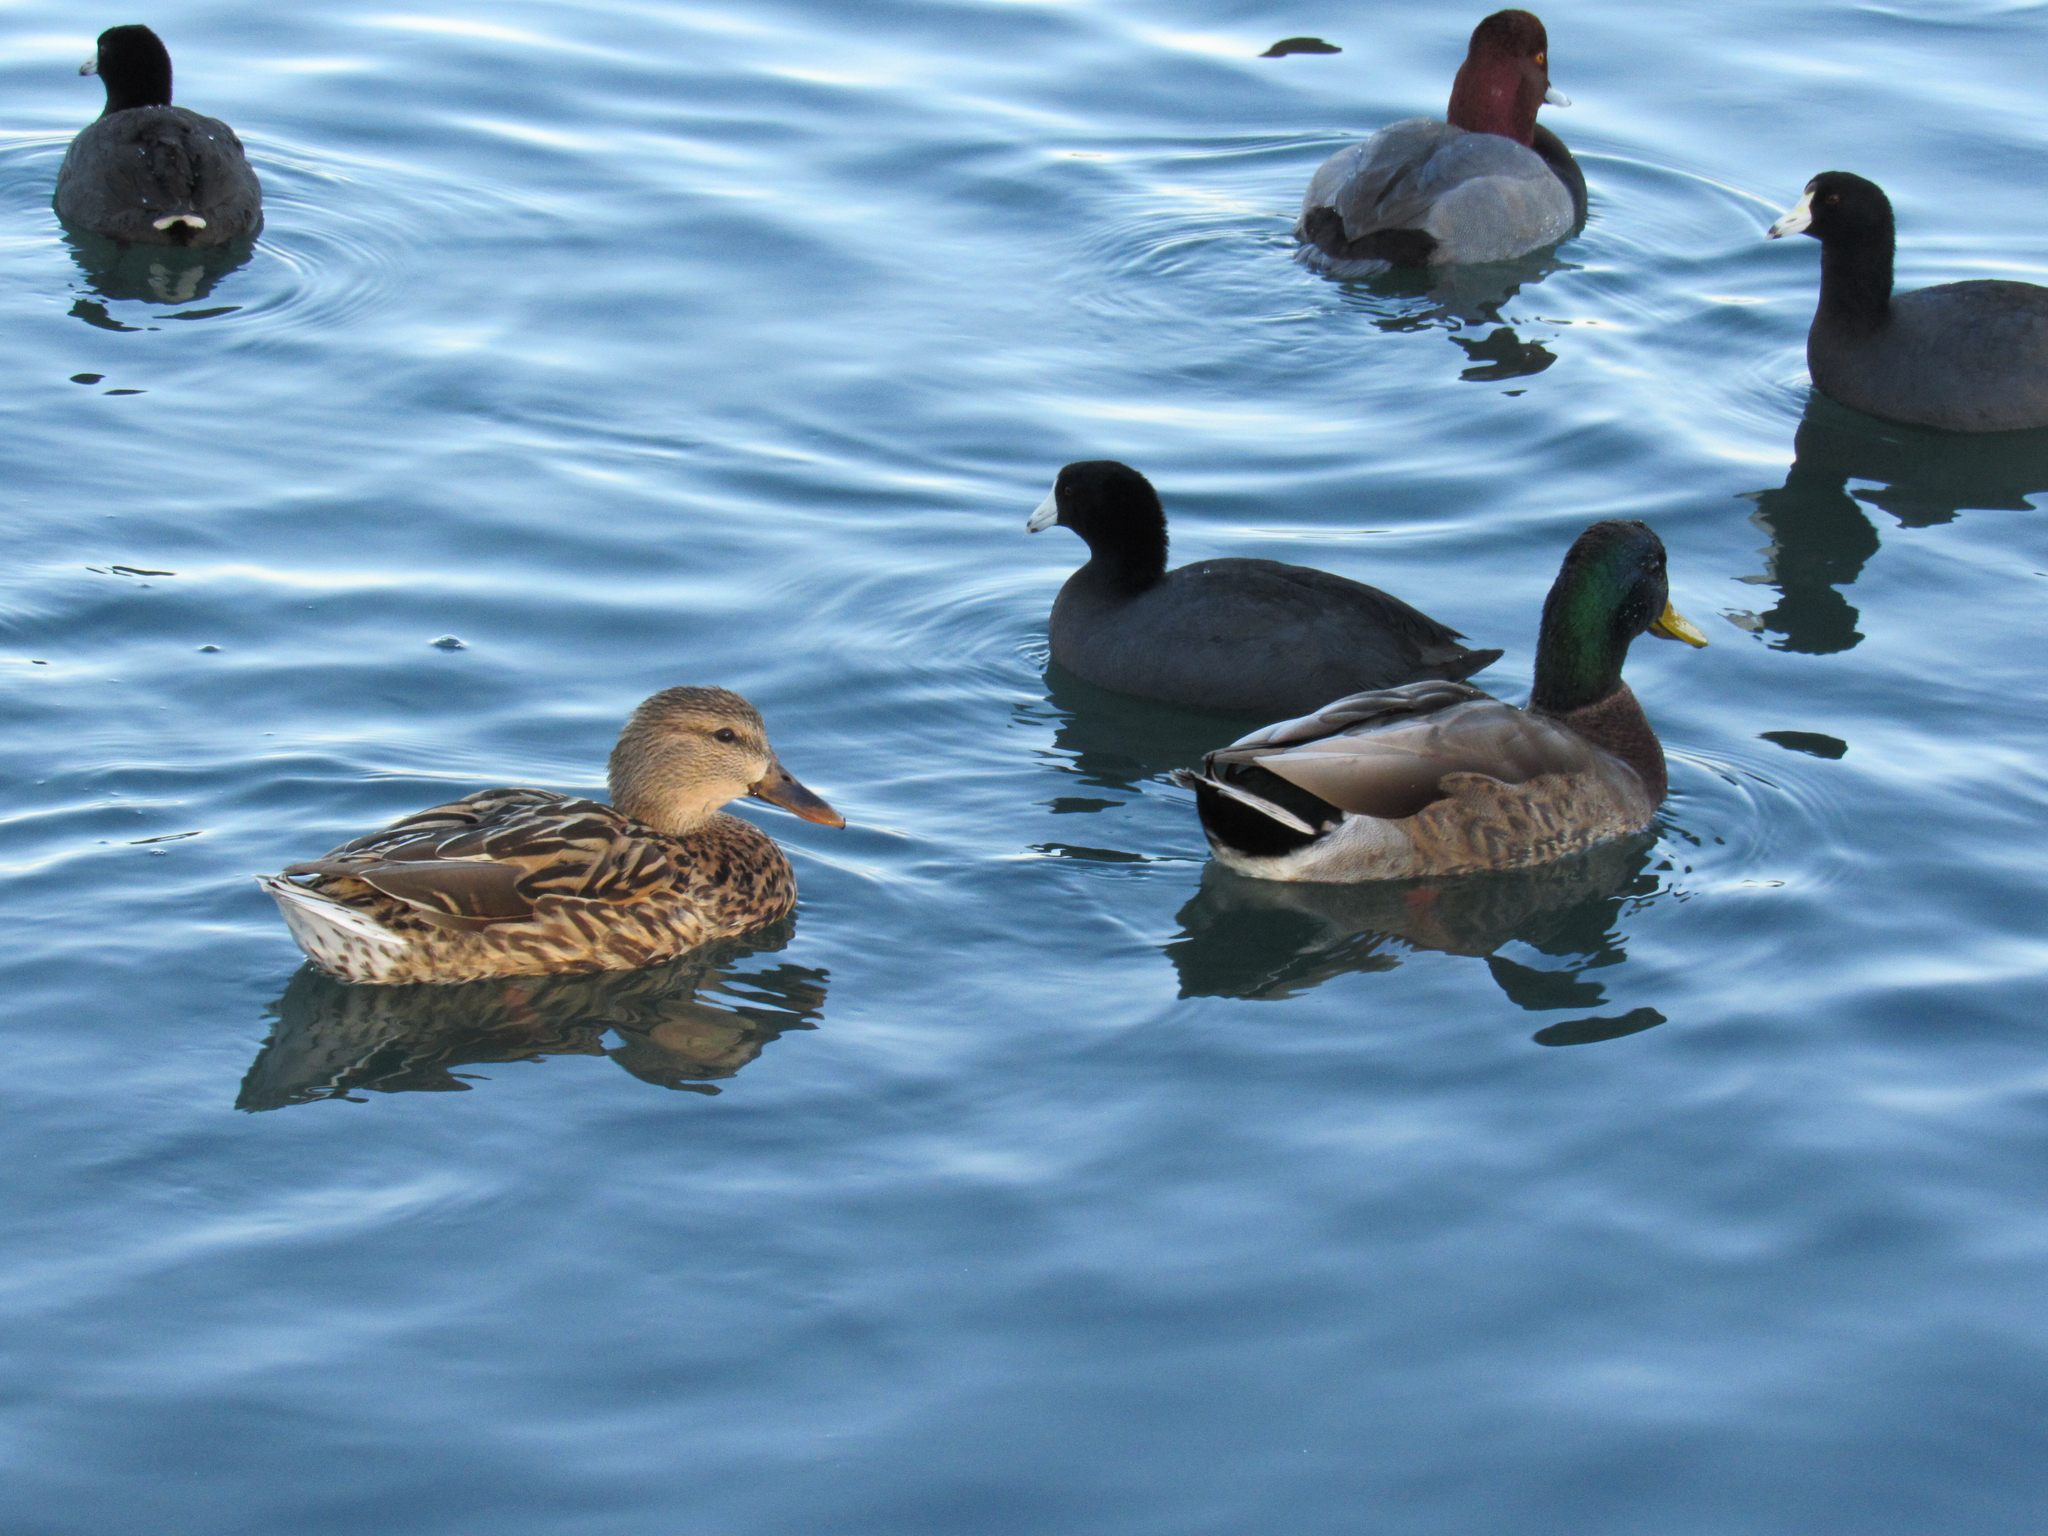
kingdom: Animalia
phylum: Chordata
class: Aves
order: Anseriformes
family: Anatidae
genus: Anas
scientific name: Anas platyrhynchos
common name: Mallard
